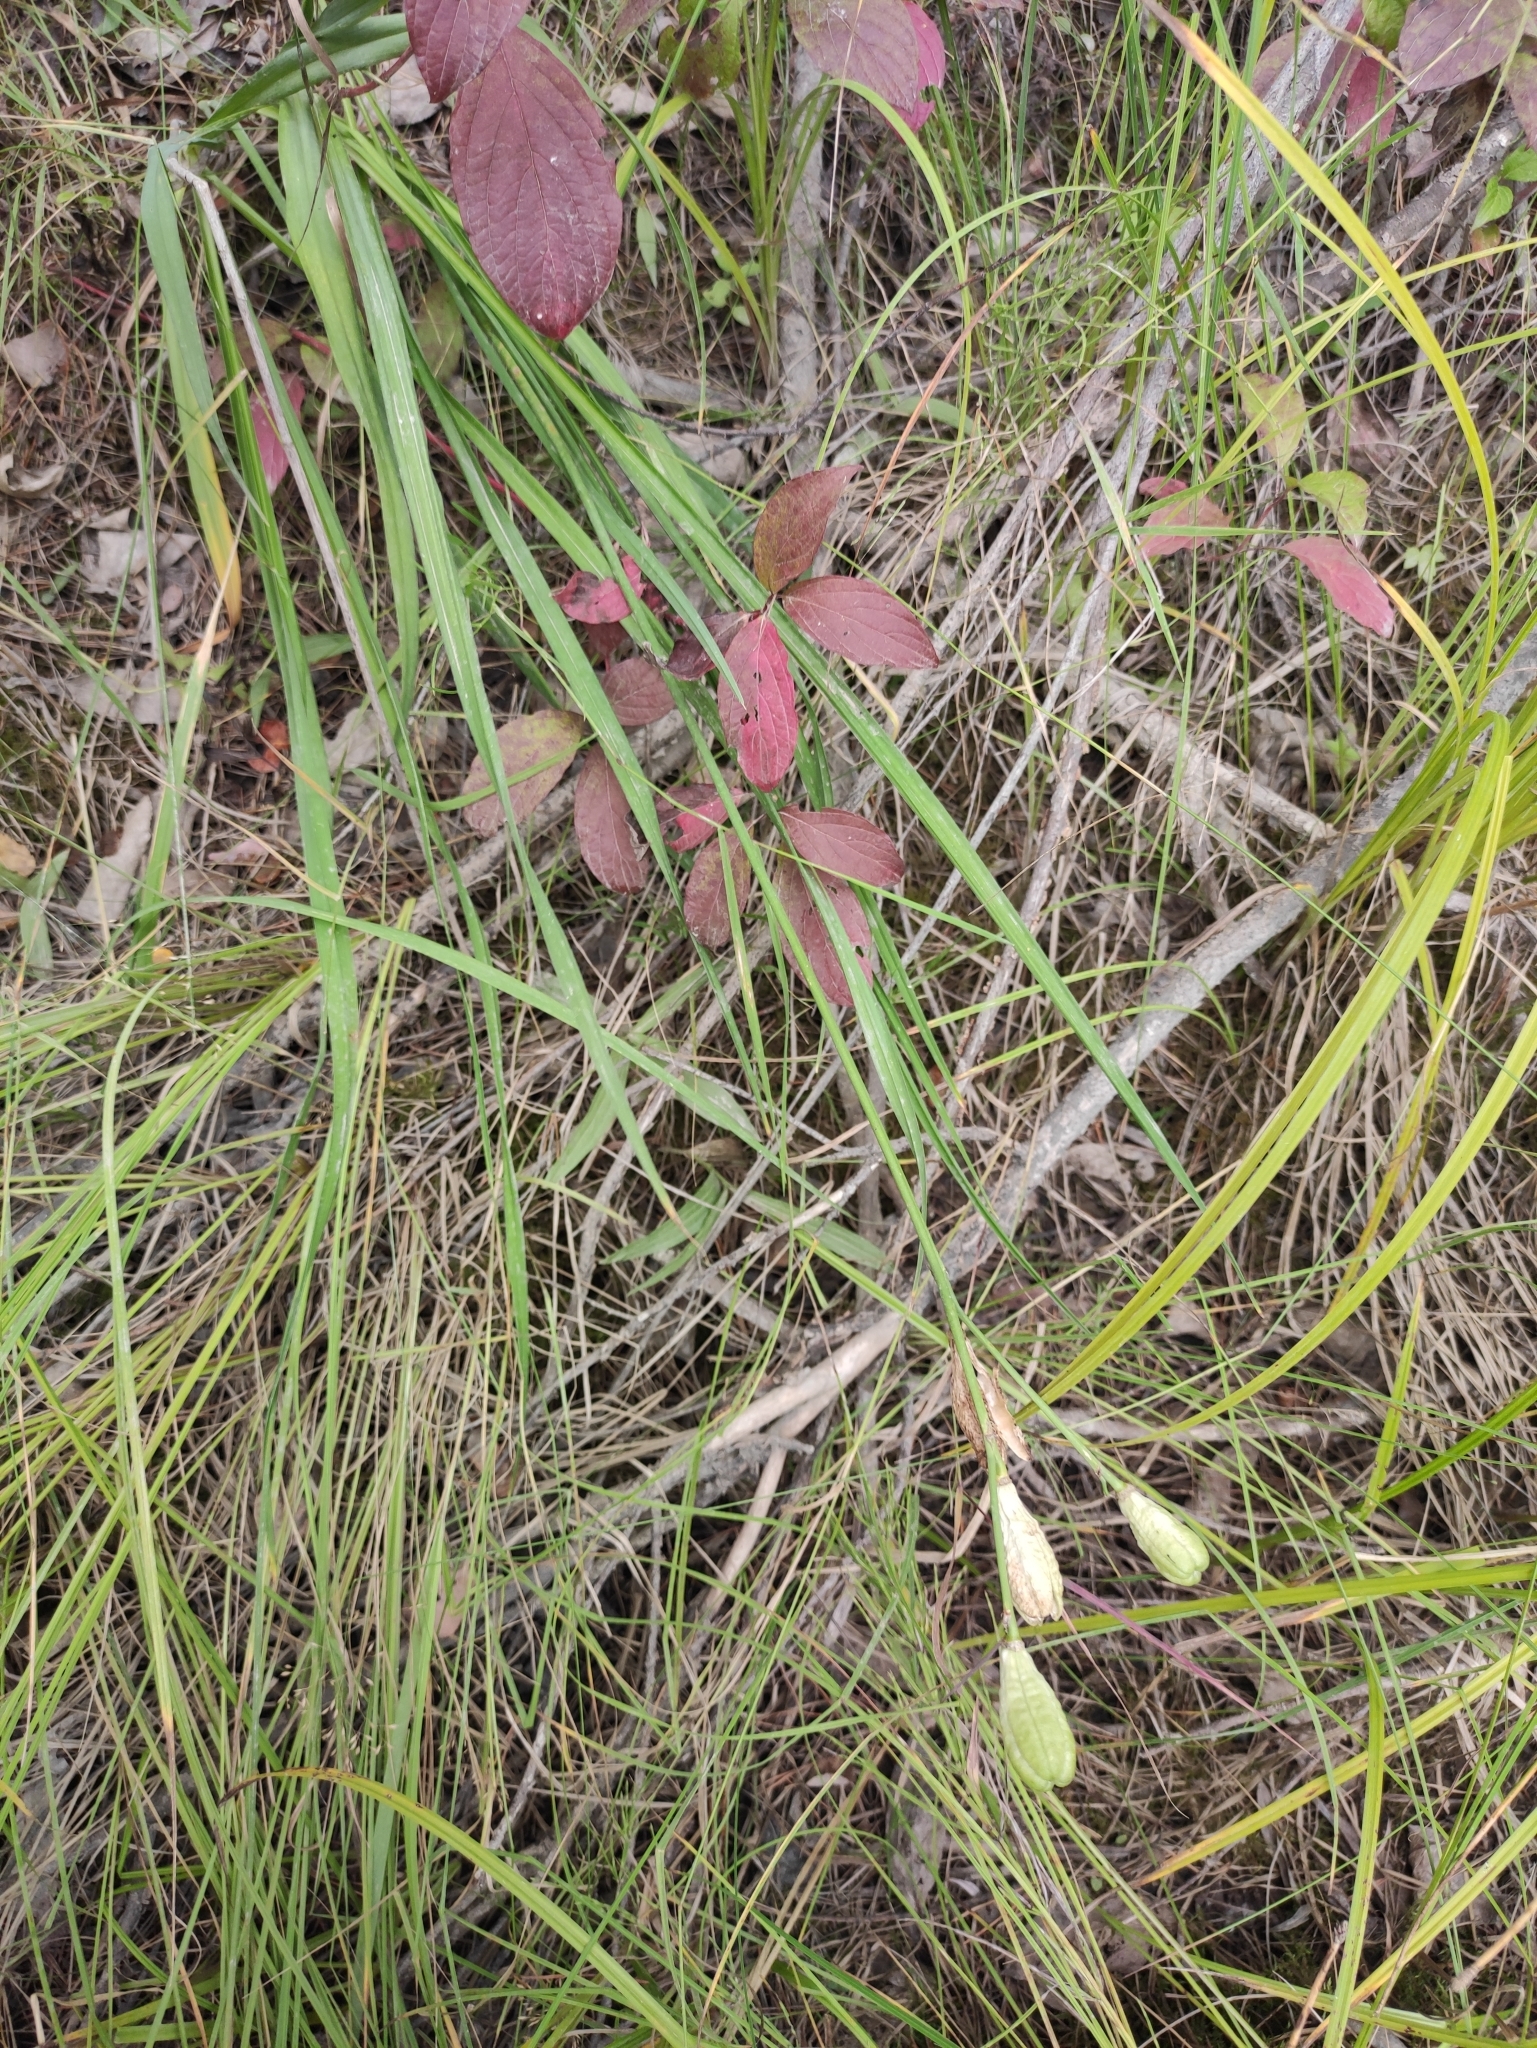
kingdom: Plantae
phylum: Tracheophyta
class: Liliopsida
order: Asparagales
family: Asphodelaceae
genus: Hemerocallis
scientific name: Hemerocallis minor
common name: Small daylily
